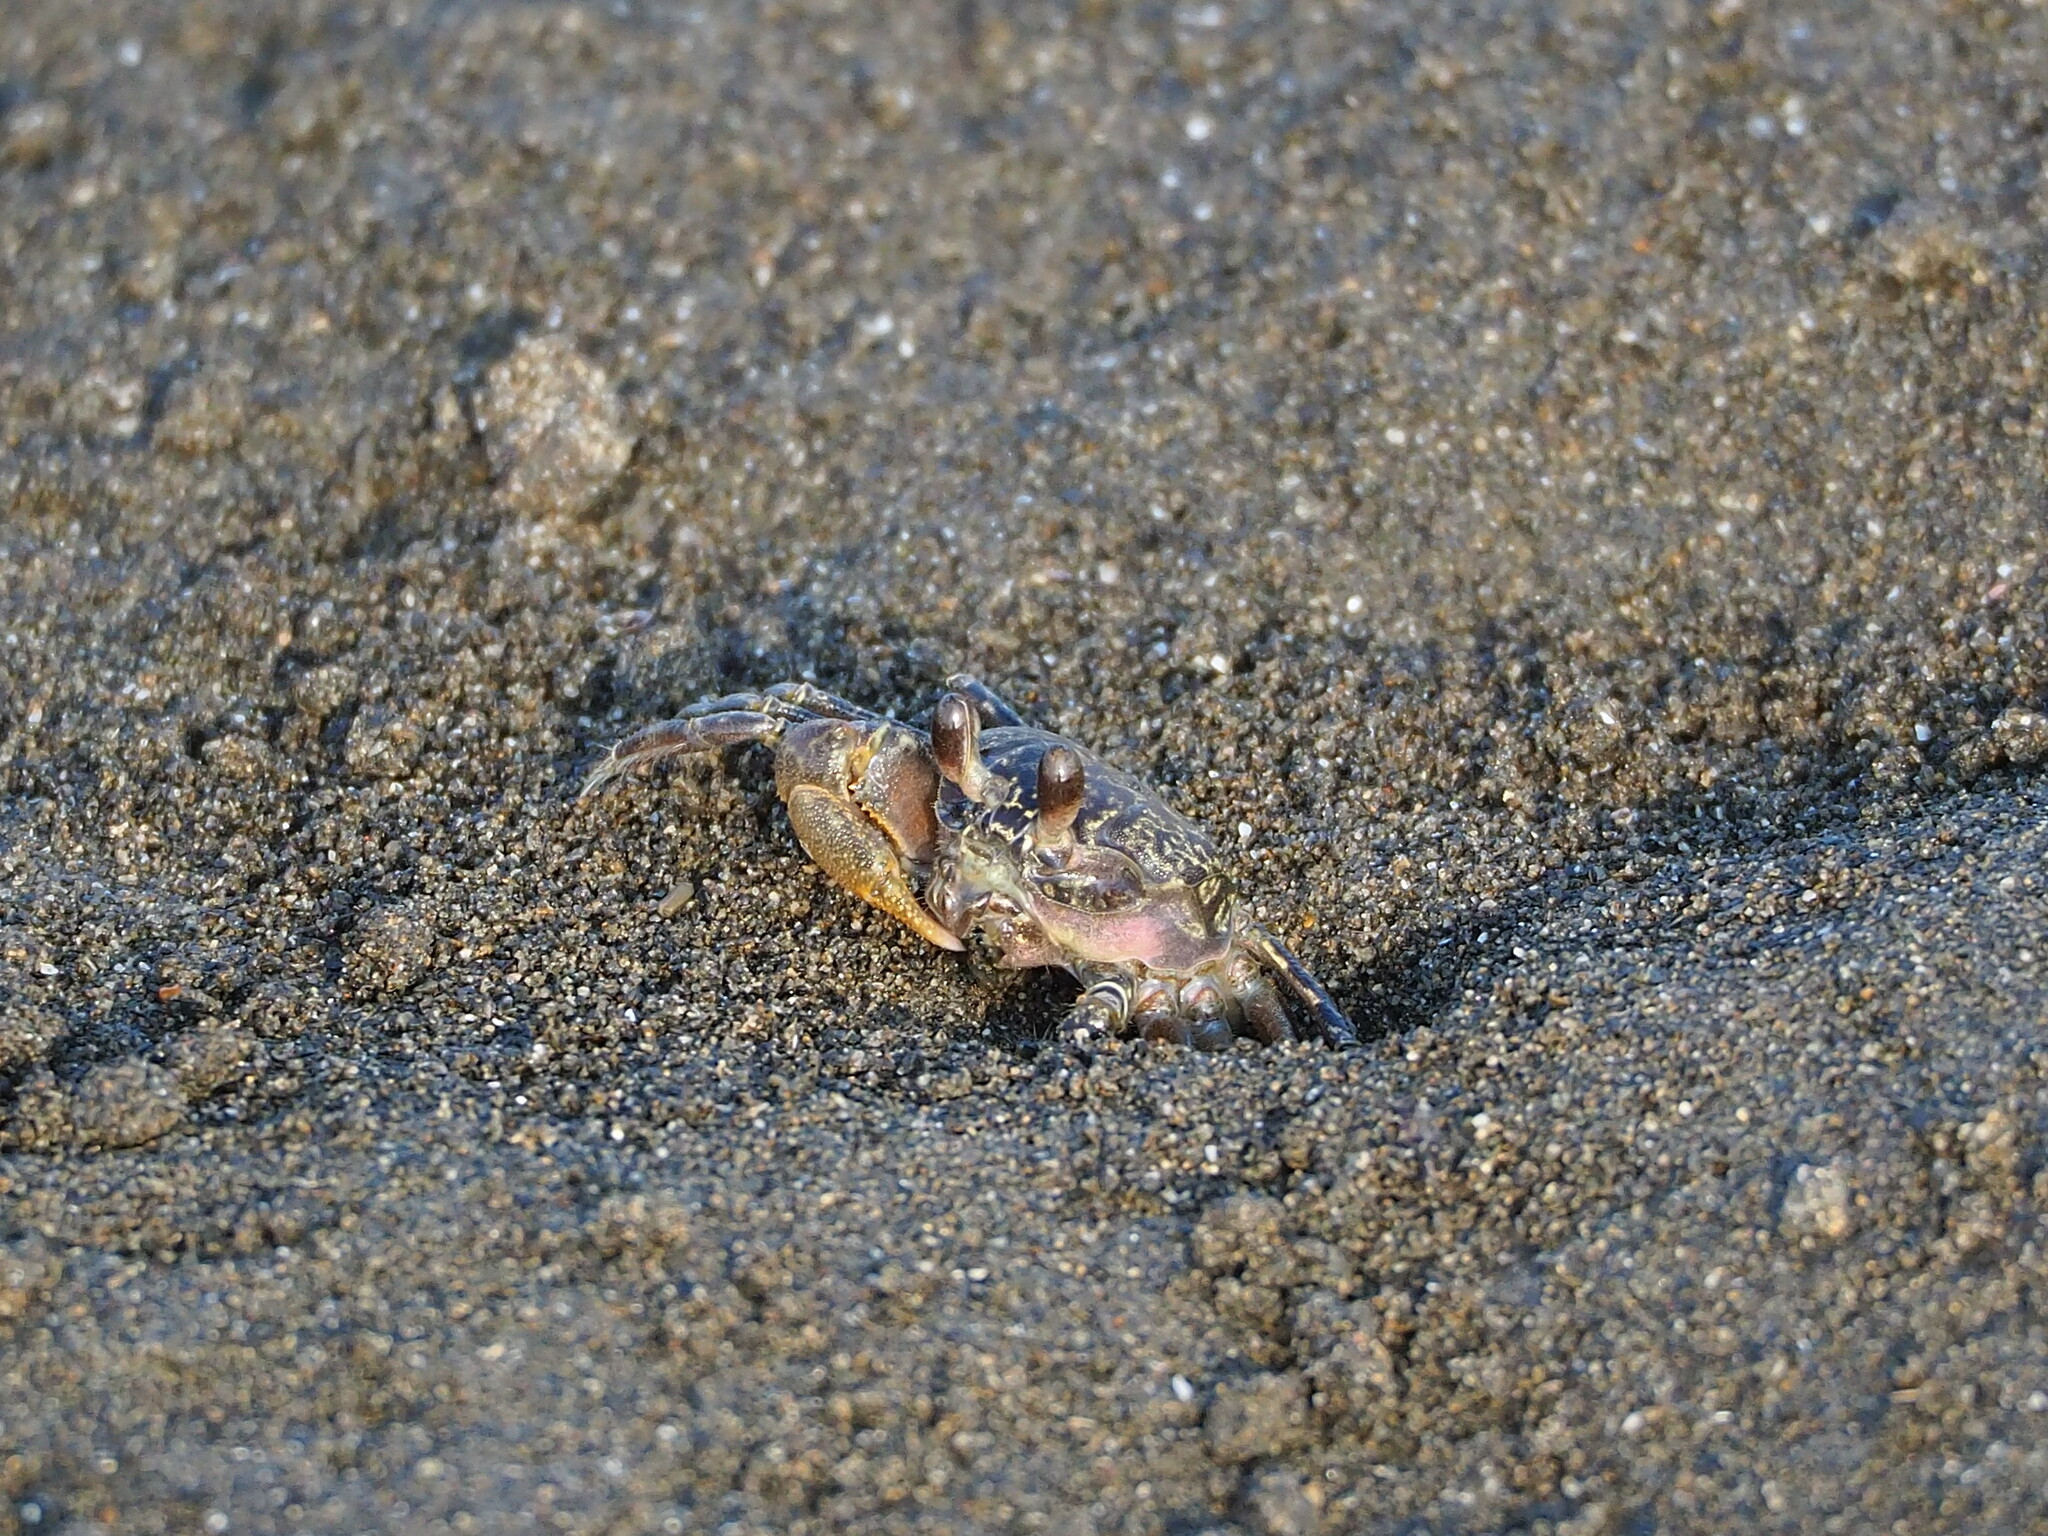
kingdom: Animalia
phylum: Arthropoda
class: Malacostraca
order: Decapoda
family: Ocypodidae
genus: Ocypode
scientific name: Ocypode stimpsoni
